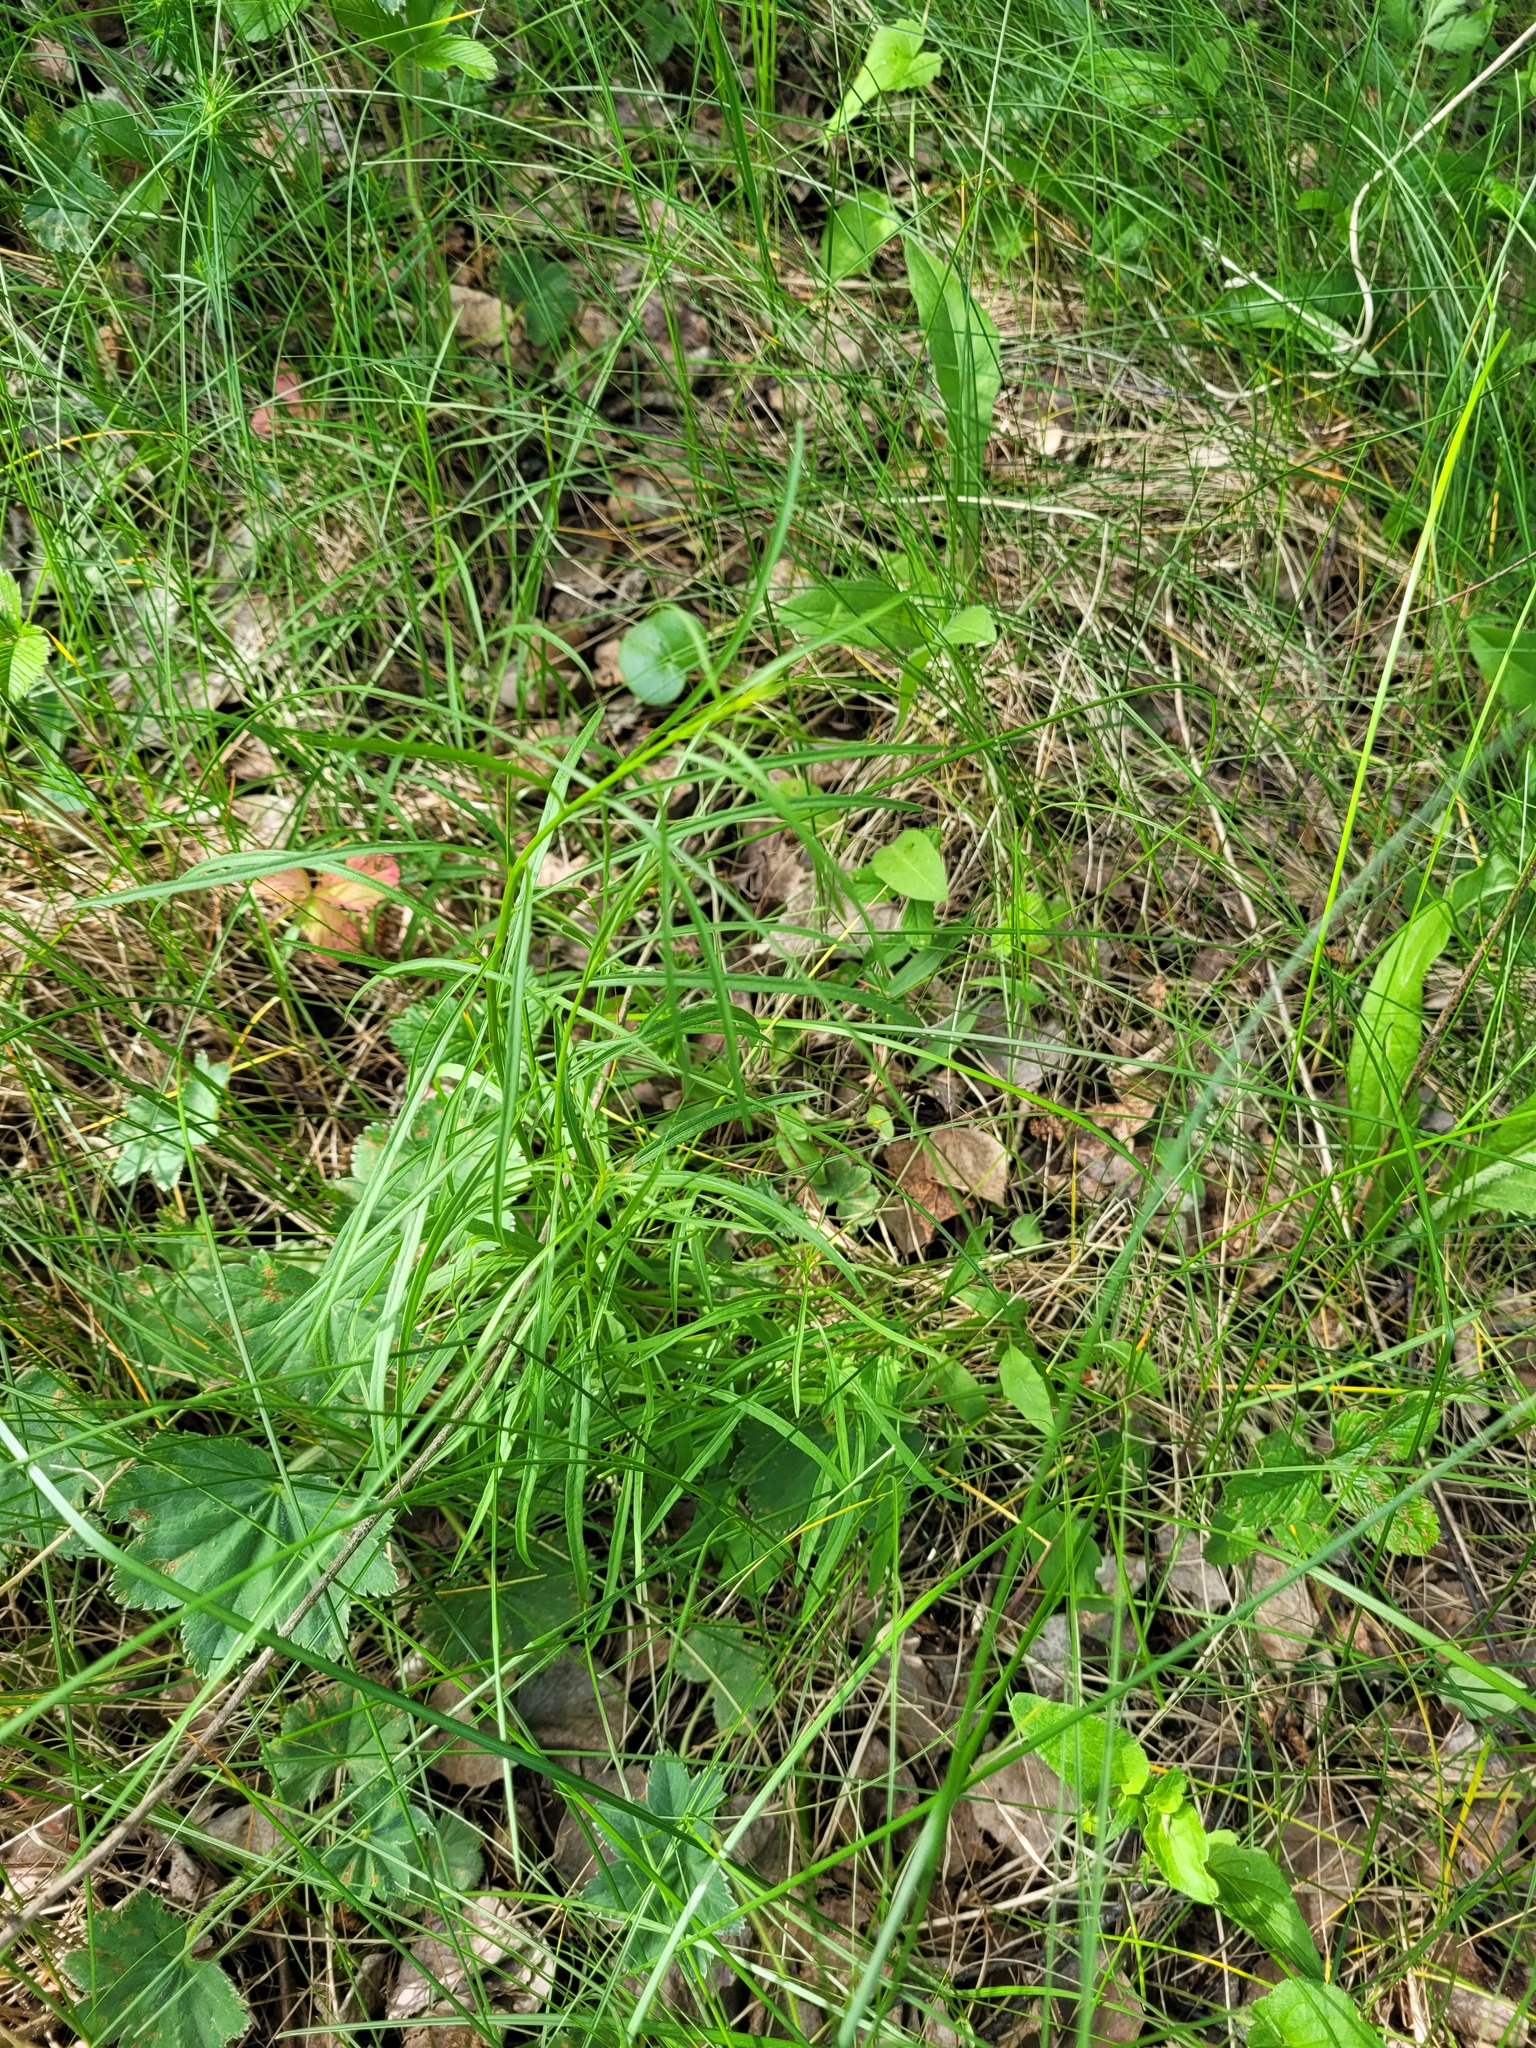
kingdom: Plantae
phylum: Tracheophyta
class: Magnoliopsida
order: Asterales
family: Campanulaceae
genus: Campanula
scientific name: Campanula rotundifolia
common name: Harebell
